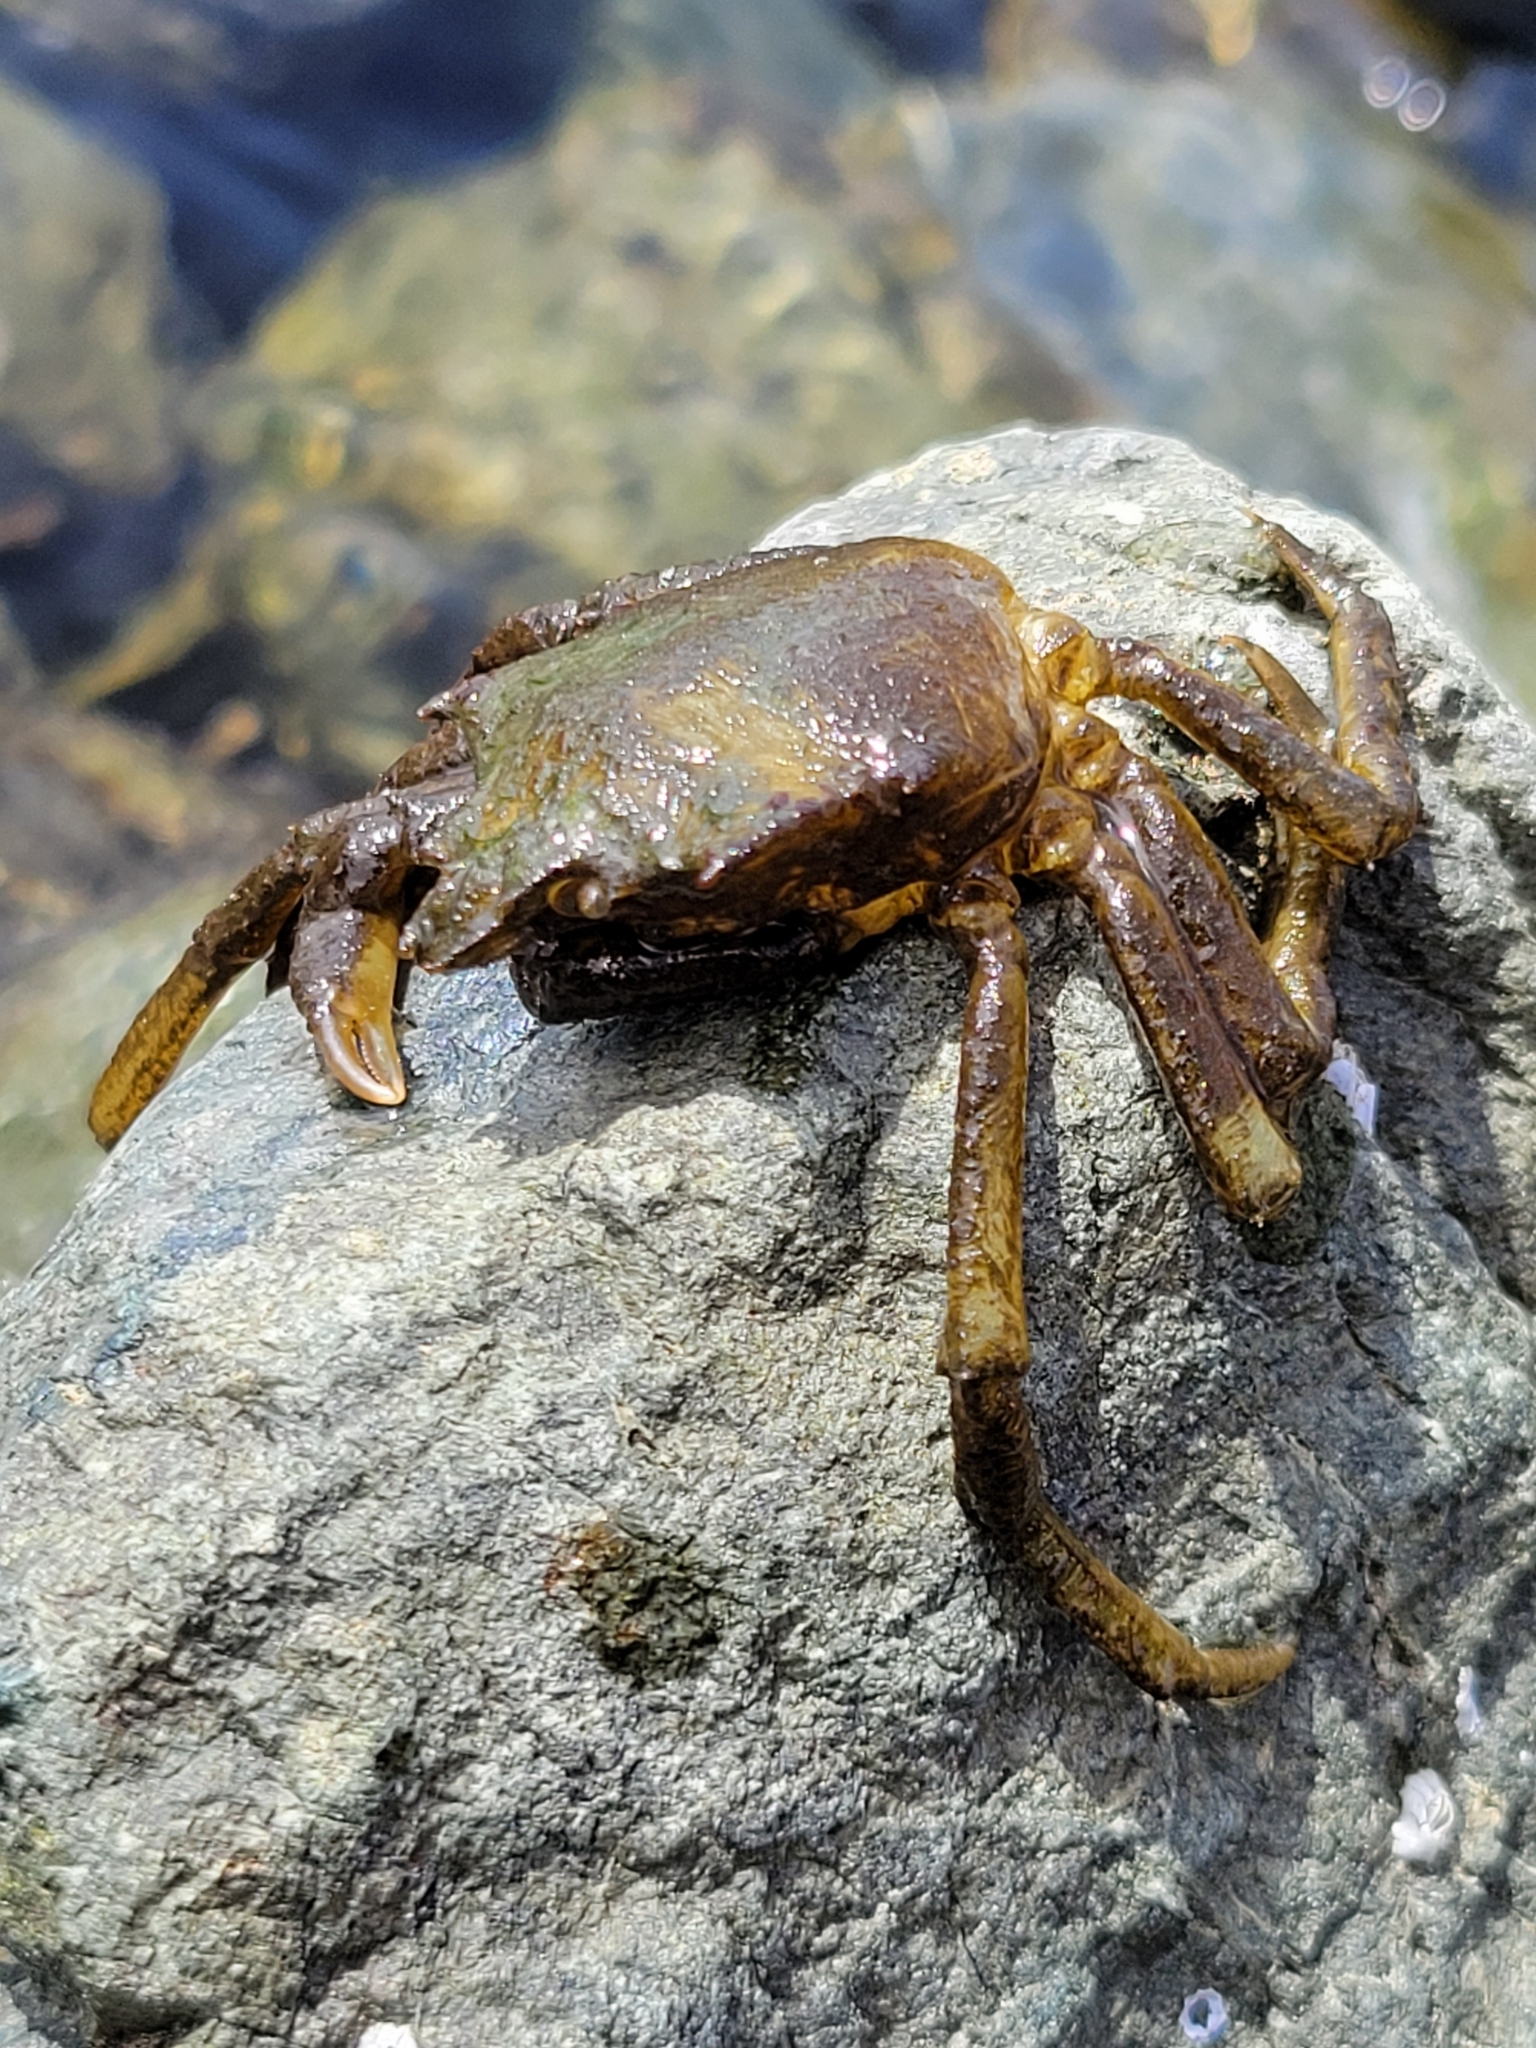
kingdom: Animalia
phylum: Arthropoda
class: Malacostraca
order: Decapoda
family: Epialtidae
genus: Pugettia
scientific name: Pugettia producta
